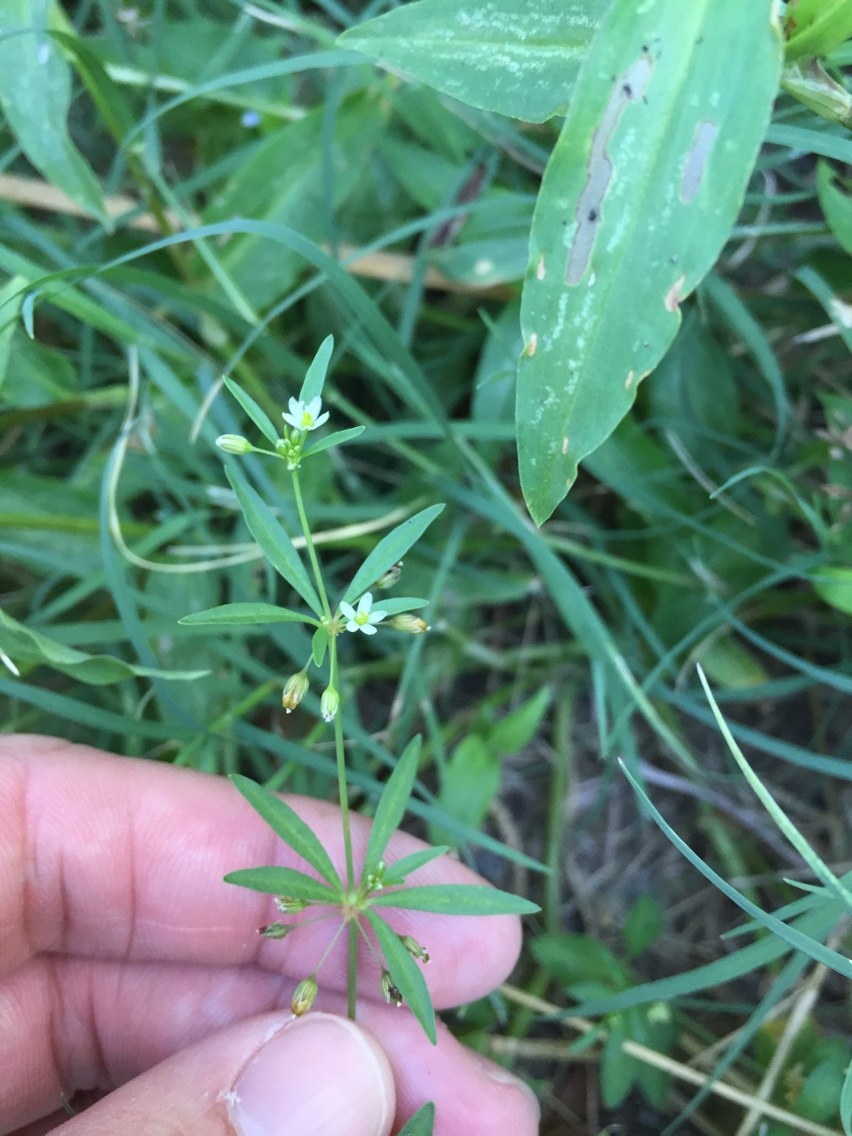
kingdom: Plantae
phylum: Tracheophyta
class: Magnoliopsida
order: Caryophyllales
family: Molluginaceae
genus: Mollugo
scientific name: Mollugo verticillata
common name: Green carpetweed
